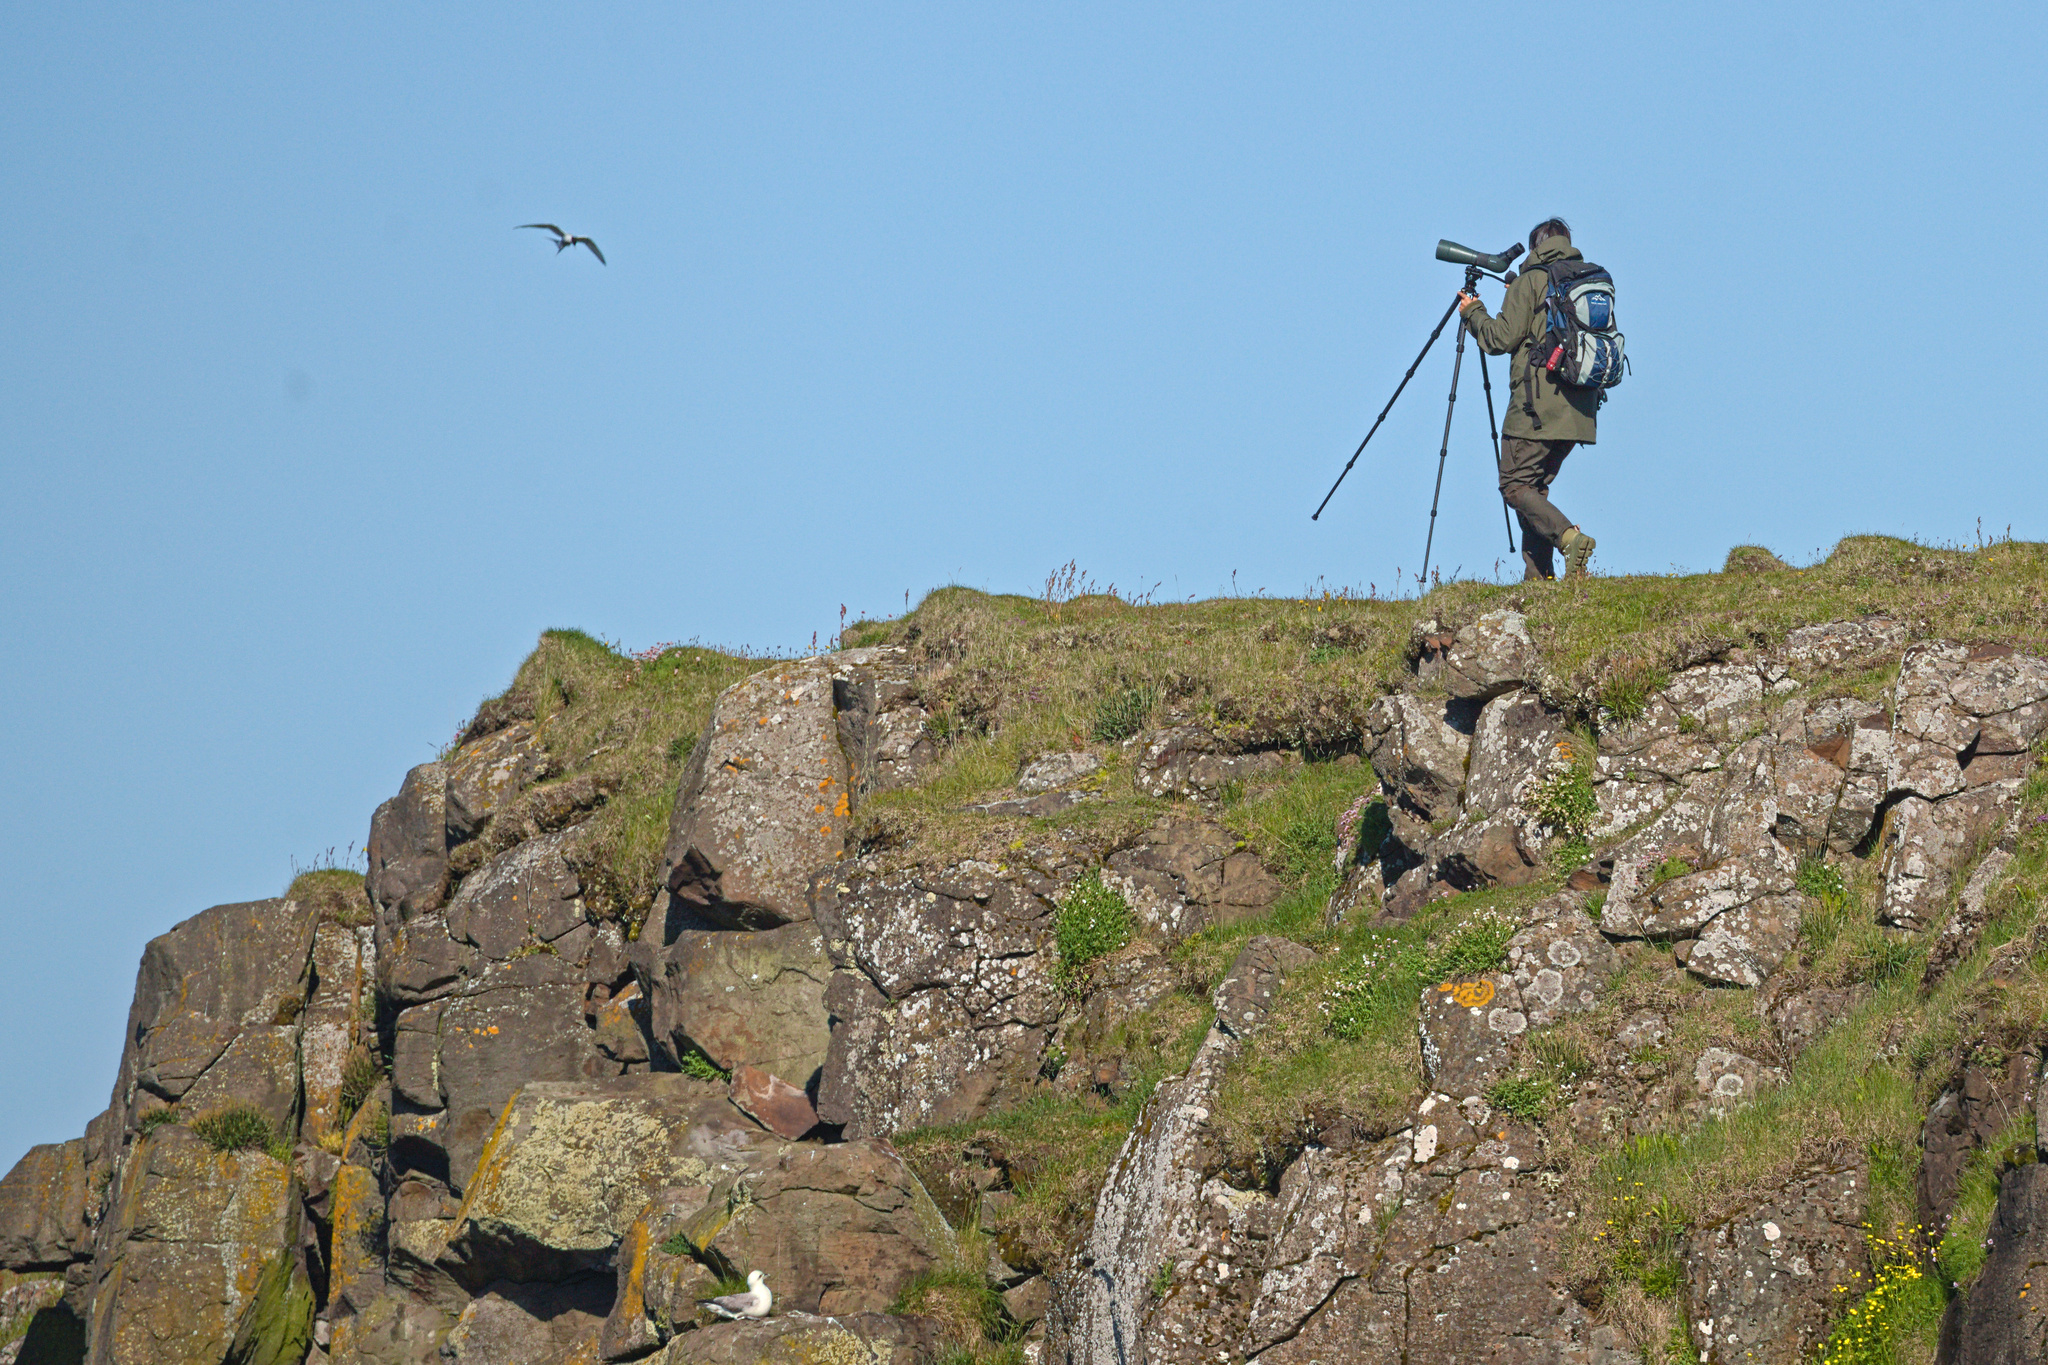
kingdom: Animalia
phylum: Chordata
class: Aves
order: Procellariiformes
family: Procellariidae
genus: Fulmarus
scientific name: Fulmarus glacialis
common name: Northern fulmar
